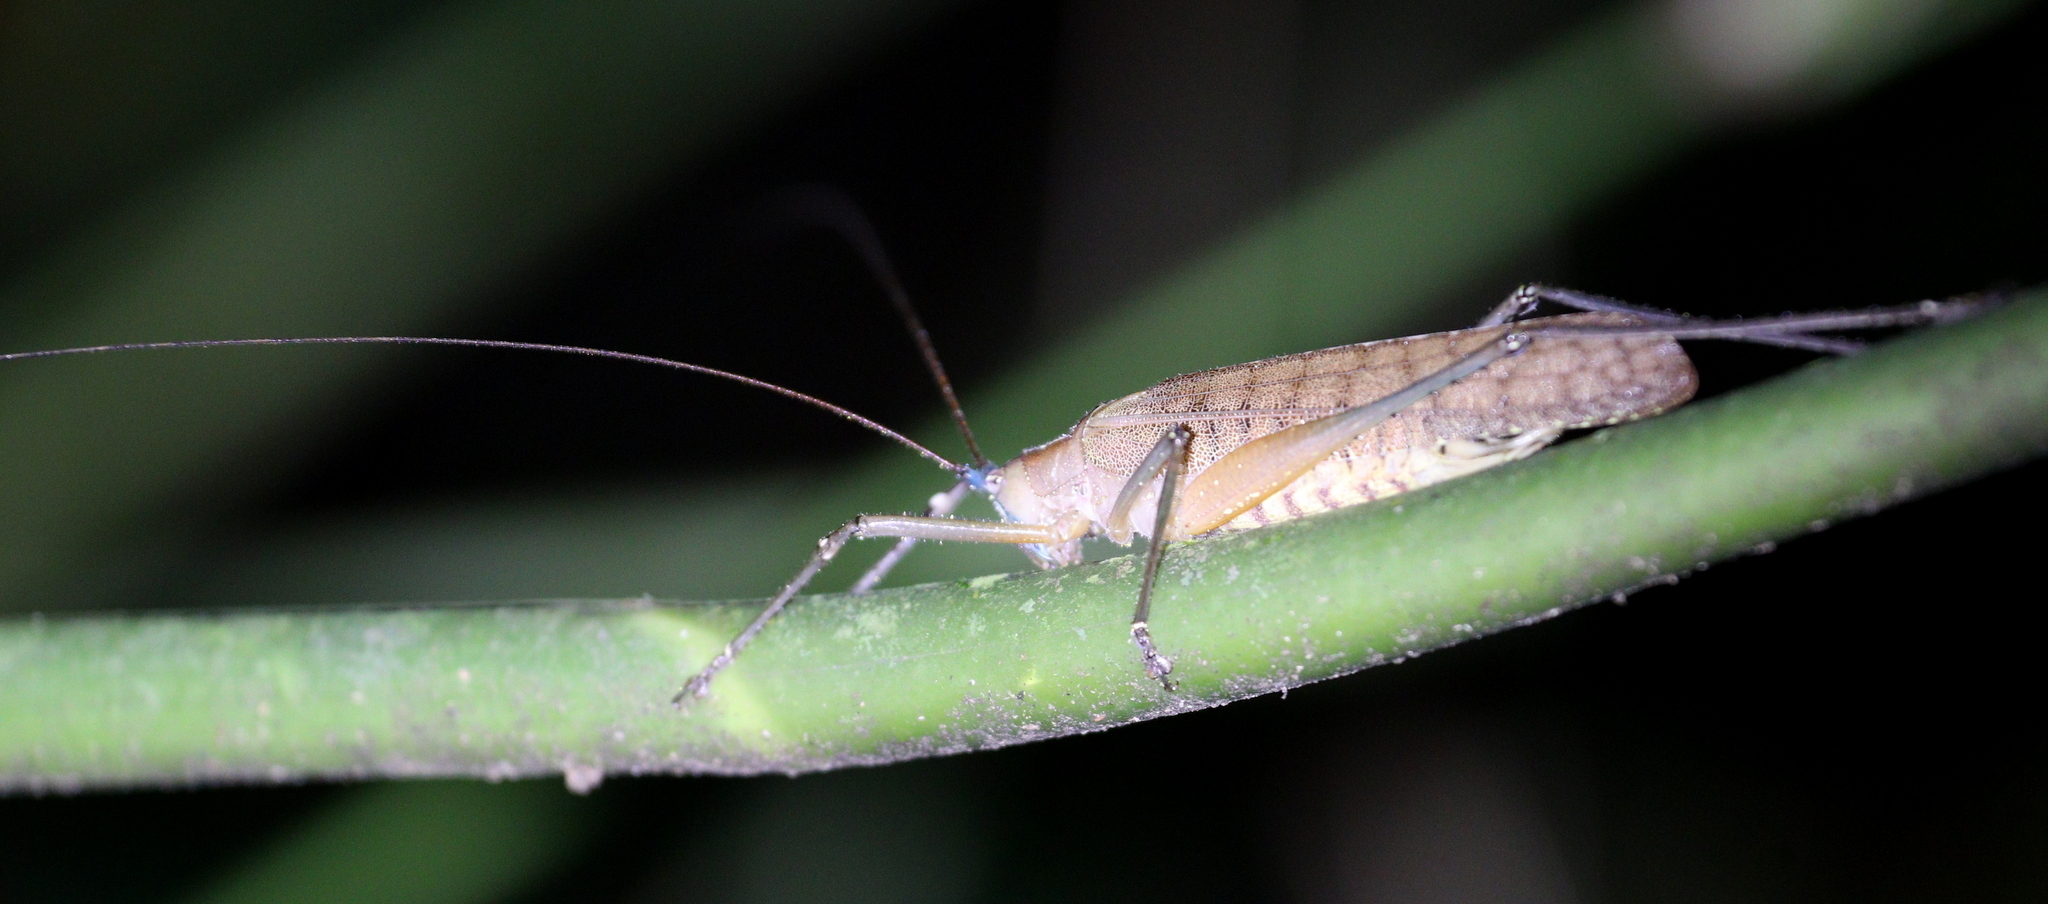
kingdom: Animalia
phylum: Arthropoda
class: Insecta
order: Orthoptera
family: Tettigoniidae
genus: Docidocercus
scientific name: Docidocercus gigliotosi
